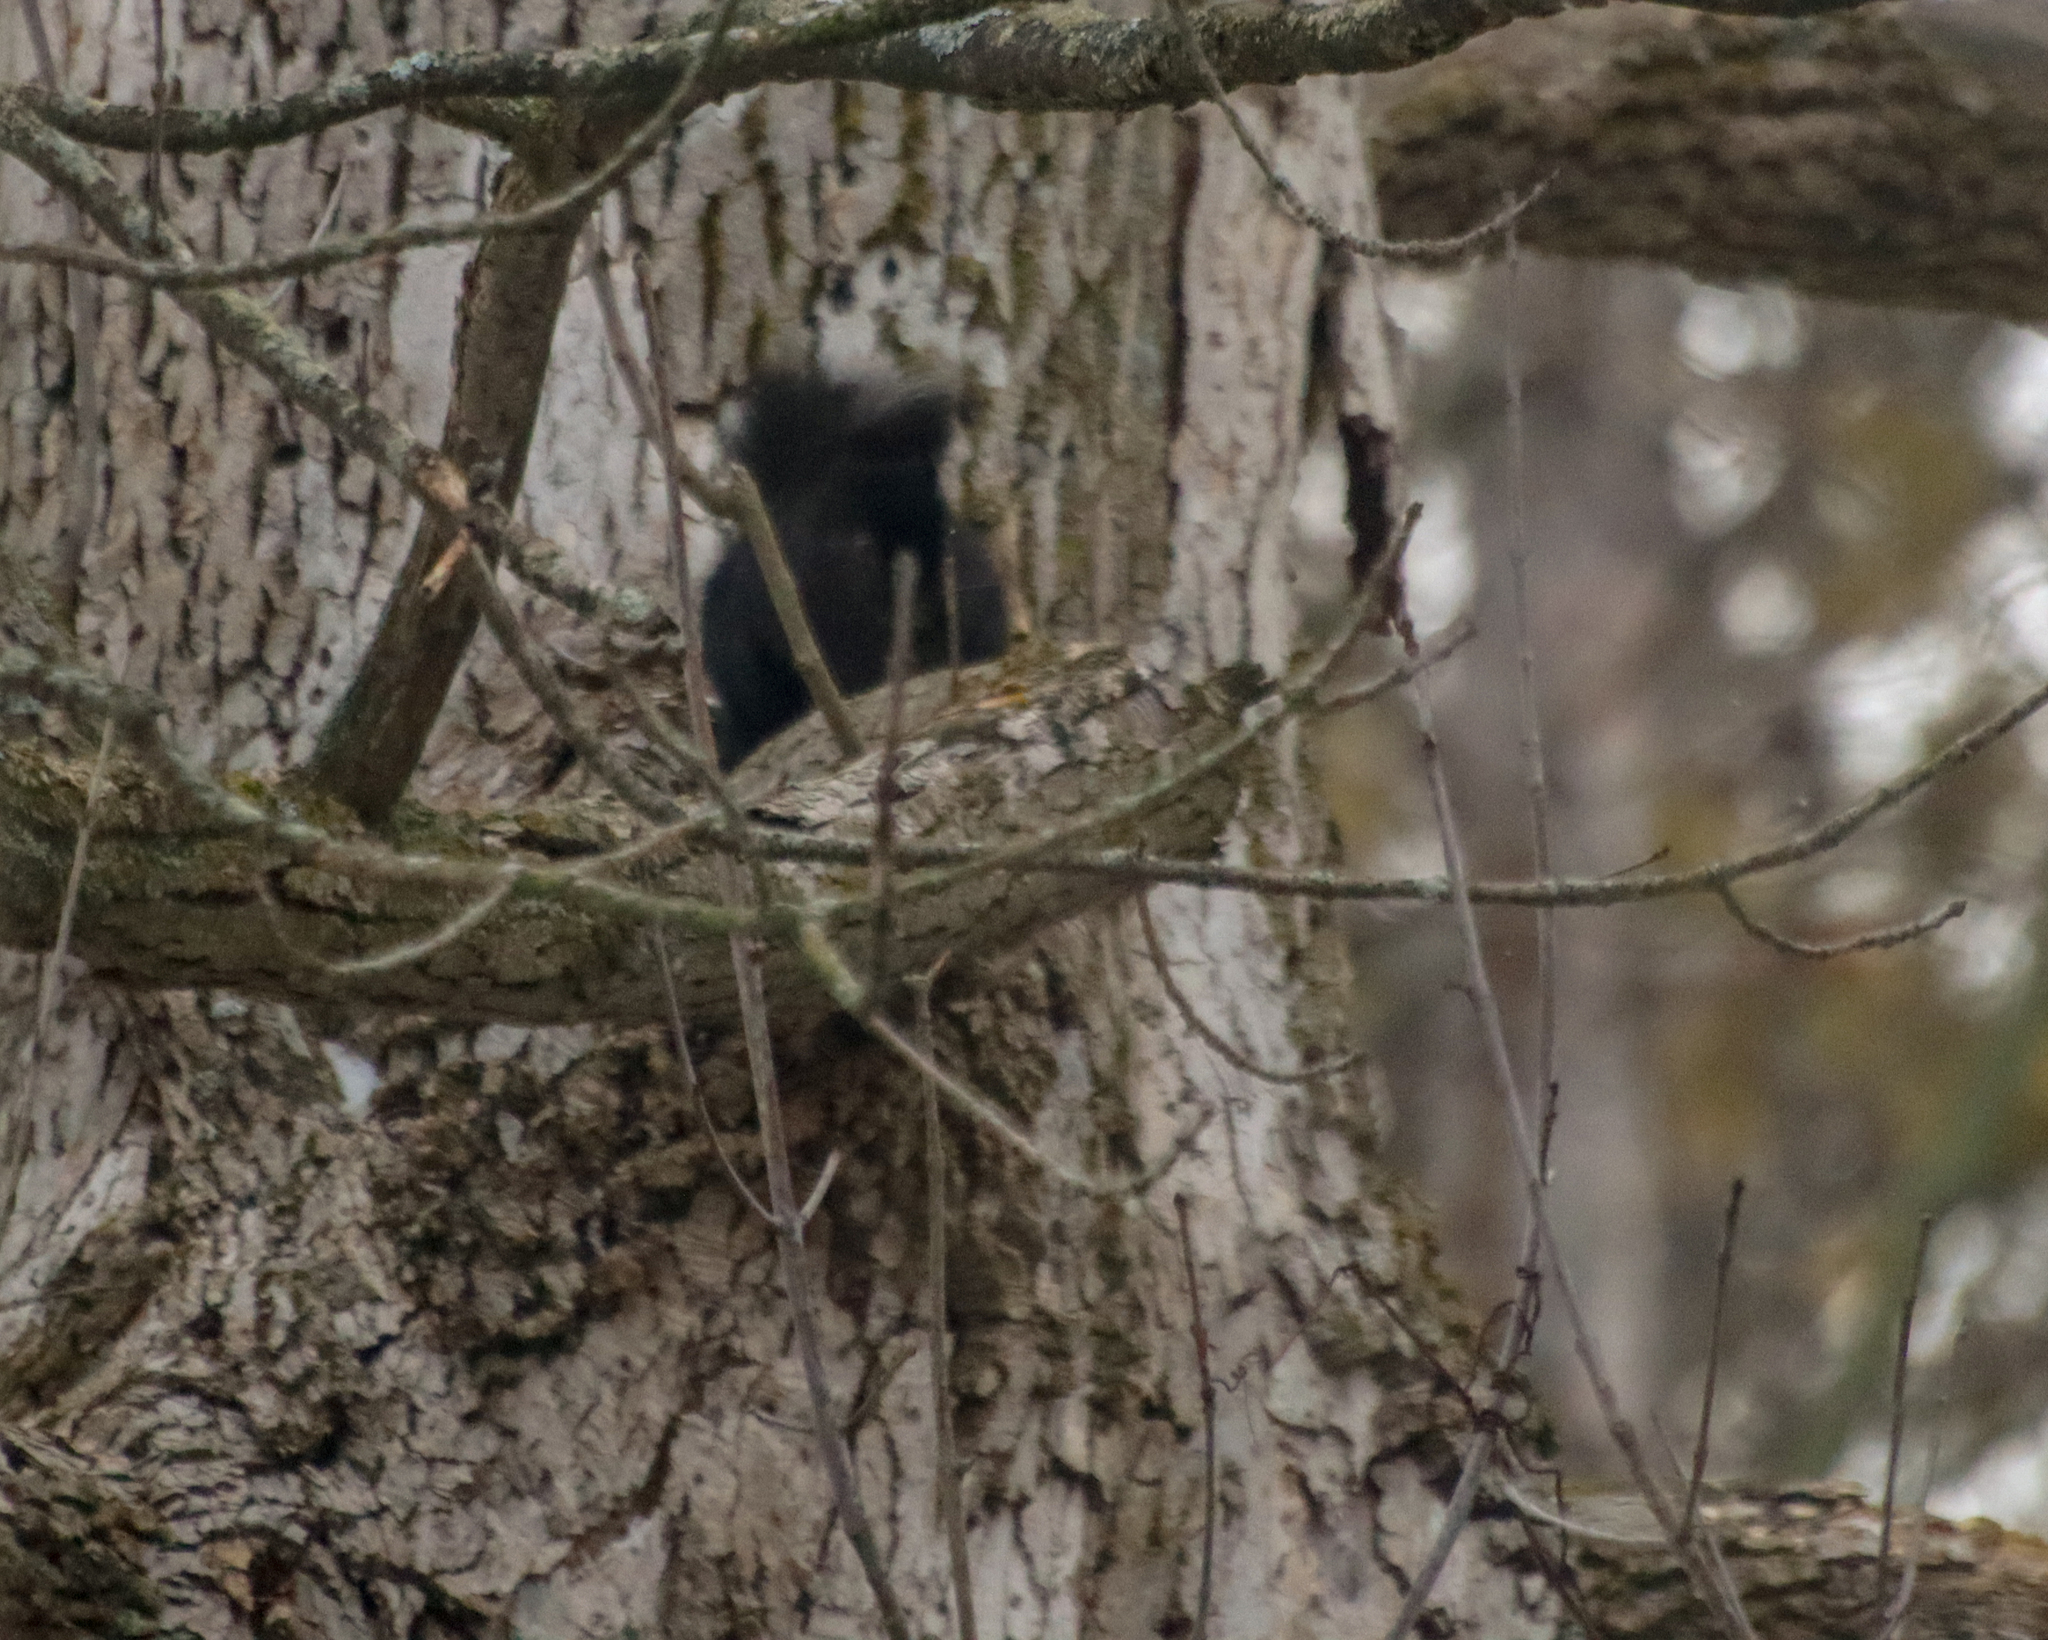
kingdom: Animalia
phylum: Chordata
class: Mammalia
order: Rodentia
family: Sciuridae
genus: Sciurus
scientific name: Sciurus carolinensis
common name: Eastern gray squirrel
